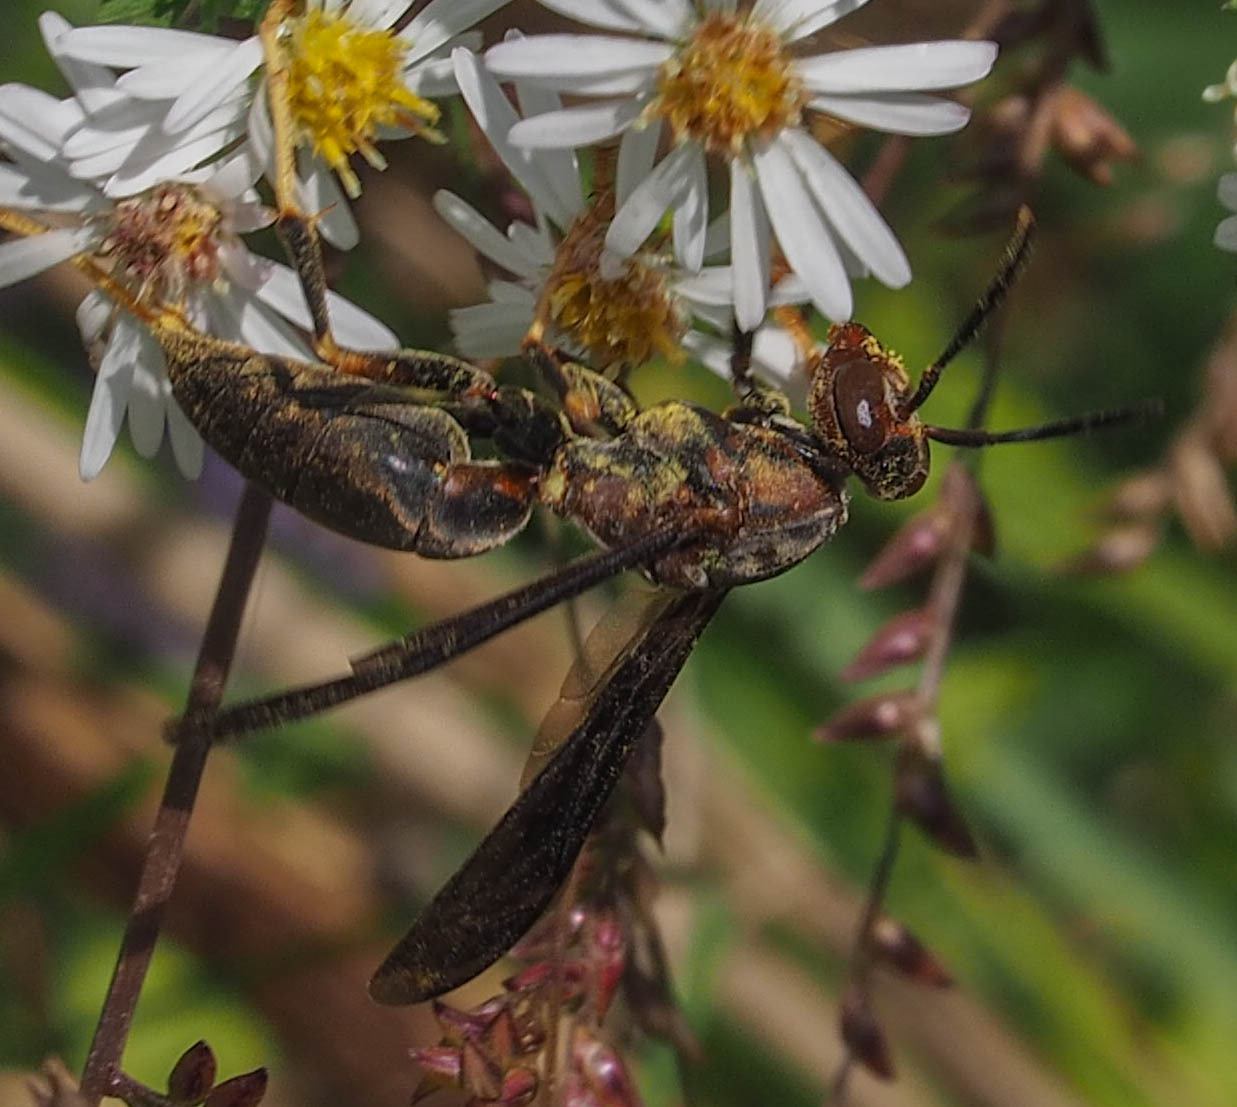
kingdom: Animalia
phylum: Arthropoda
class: Insecta
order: Hymenoptera
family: Eumenidae
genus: Polistes
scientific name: Polistes metricus
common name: Metric paper wasp
